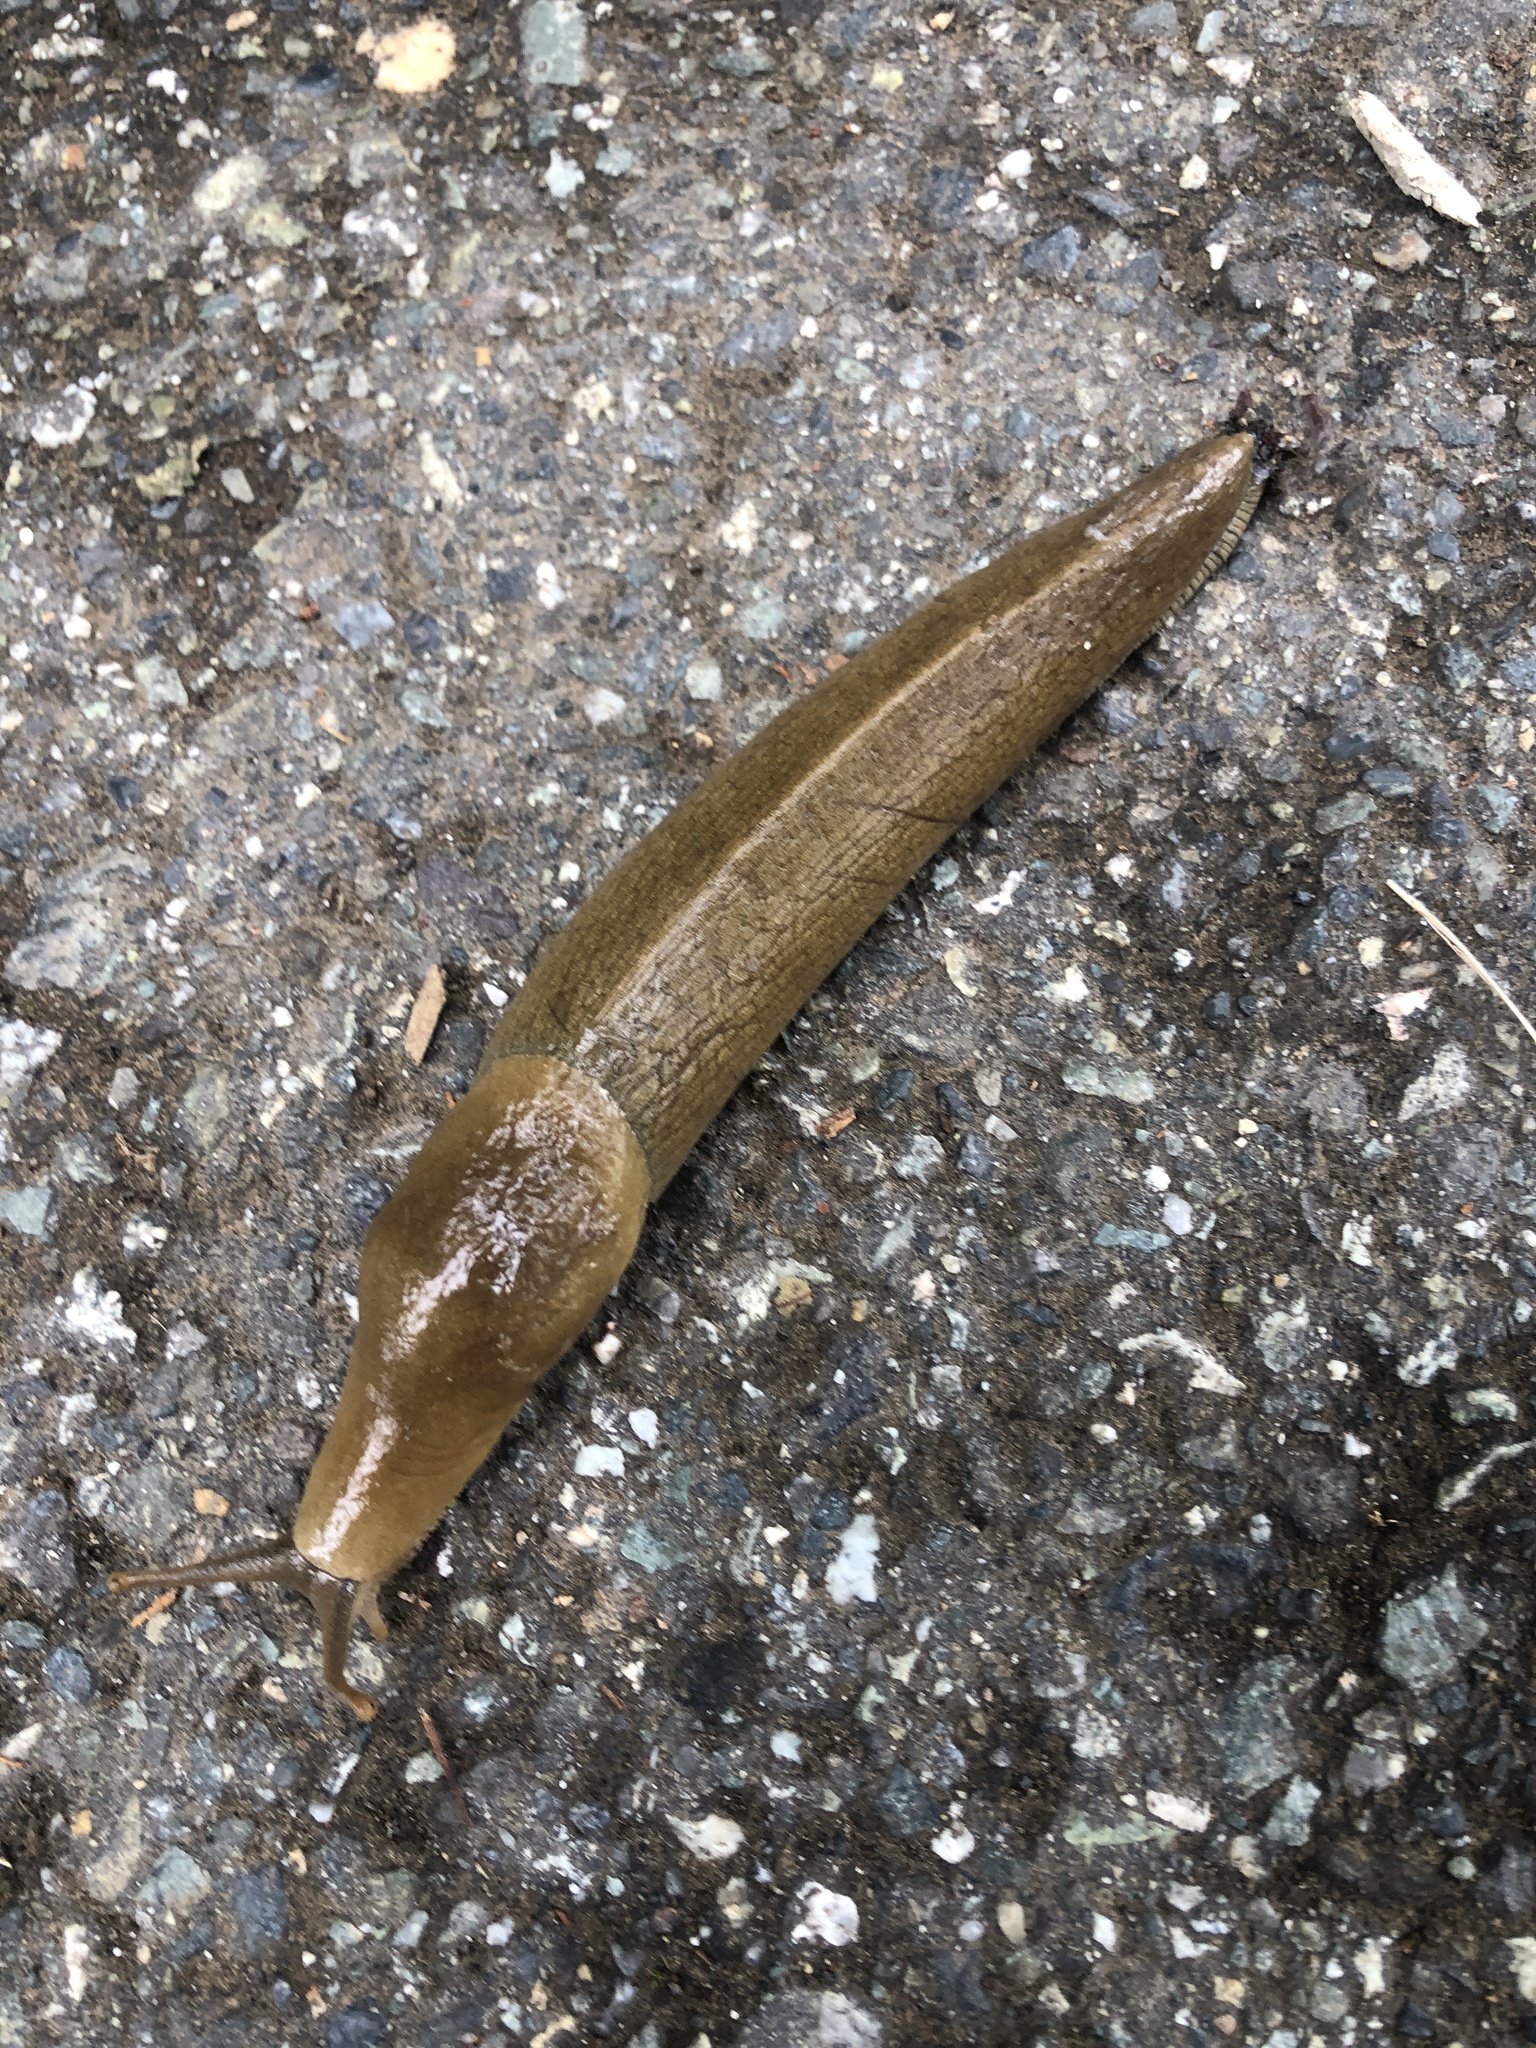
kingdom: Animalia
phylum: Mollusca
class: Gastropoda
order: Stylommatophora
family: Ariolimacidae
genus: Ariolimax
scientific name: Ariolimax columbianus
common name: Pacific banana slug
